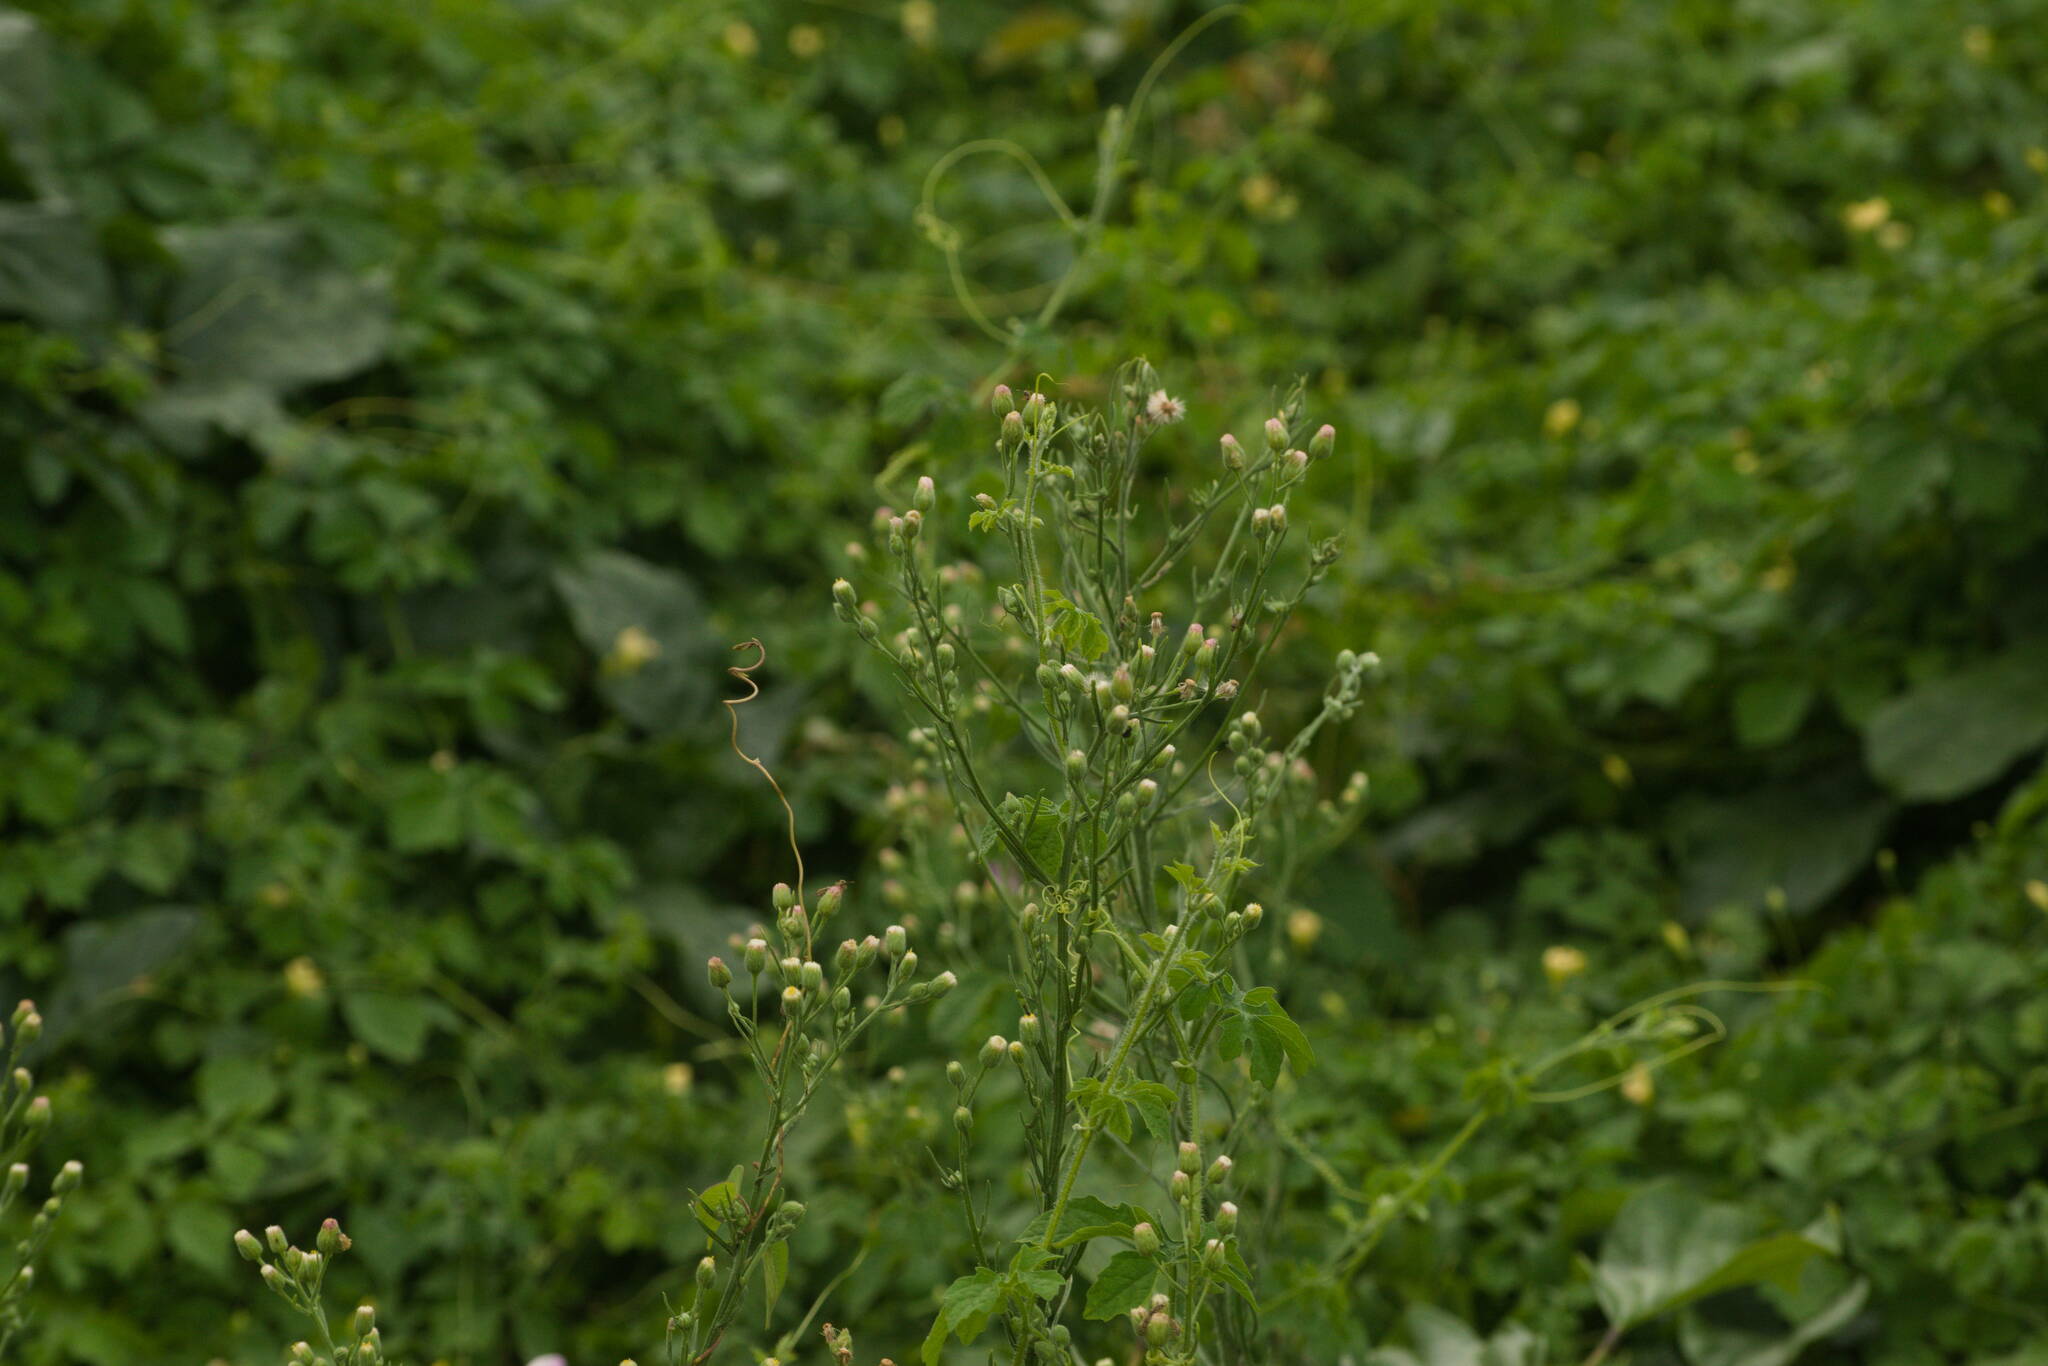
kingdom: Plantae
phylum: Tracheophyta
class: Magnoliopsida
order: Asterales
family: Asteraceae
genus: Erigeron
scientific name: Erigeron bonariensis
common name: Argentine fleabane
